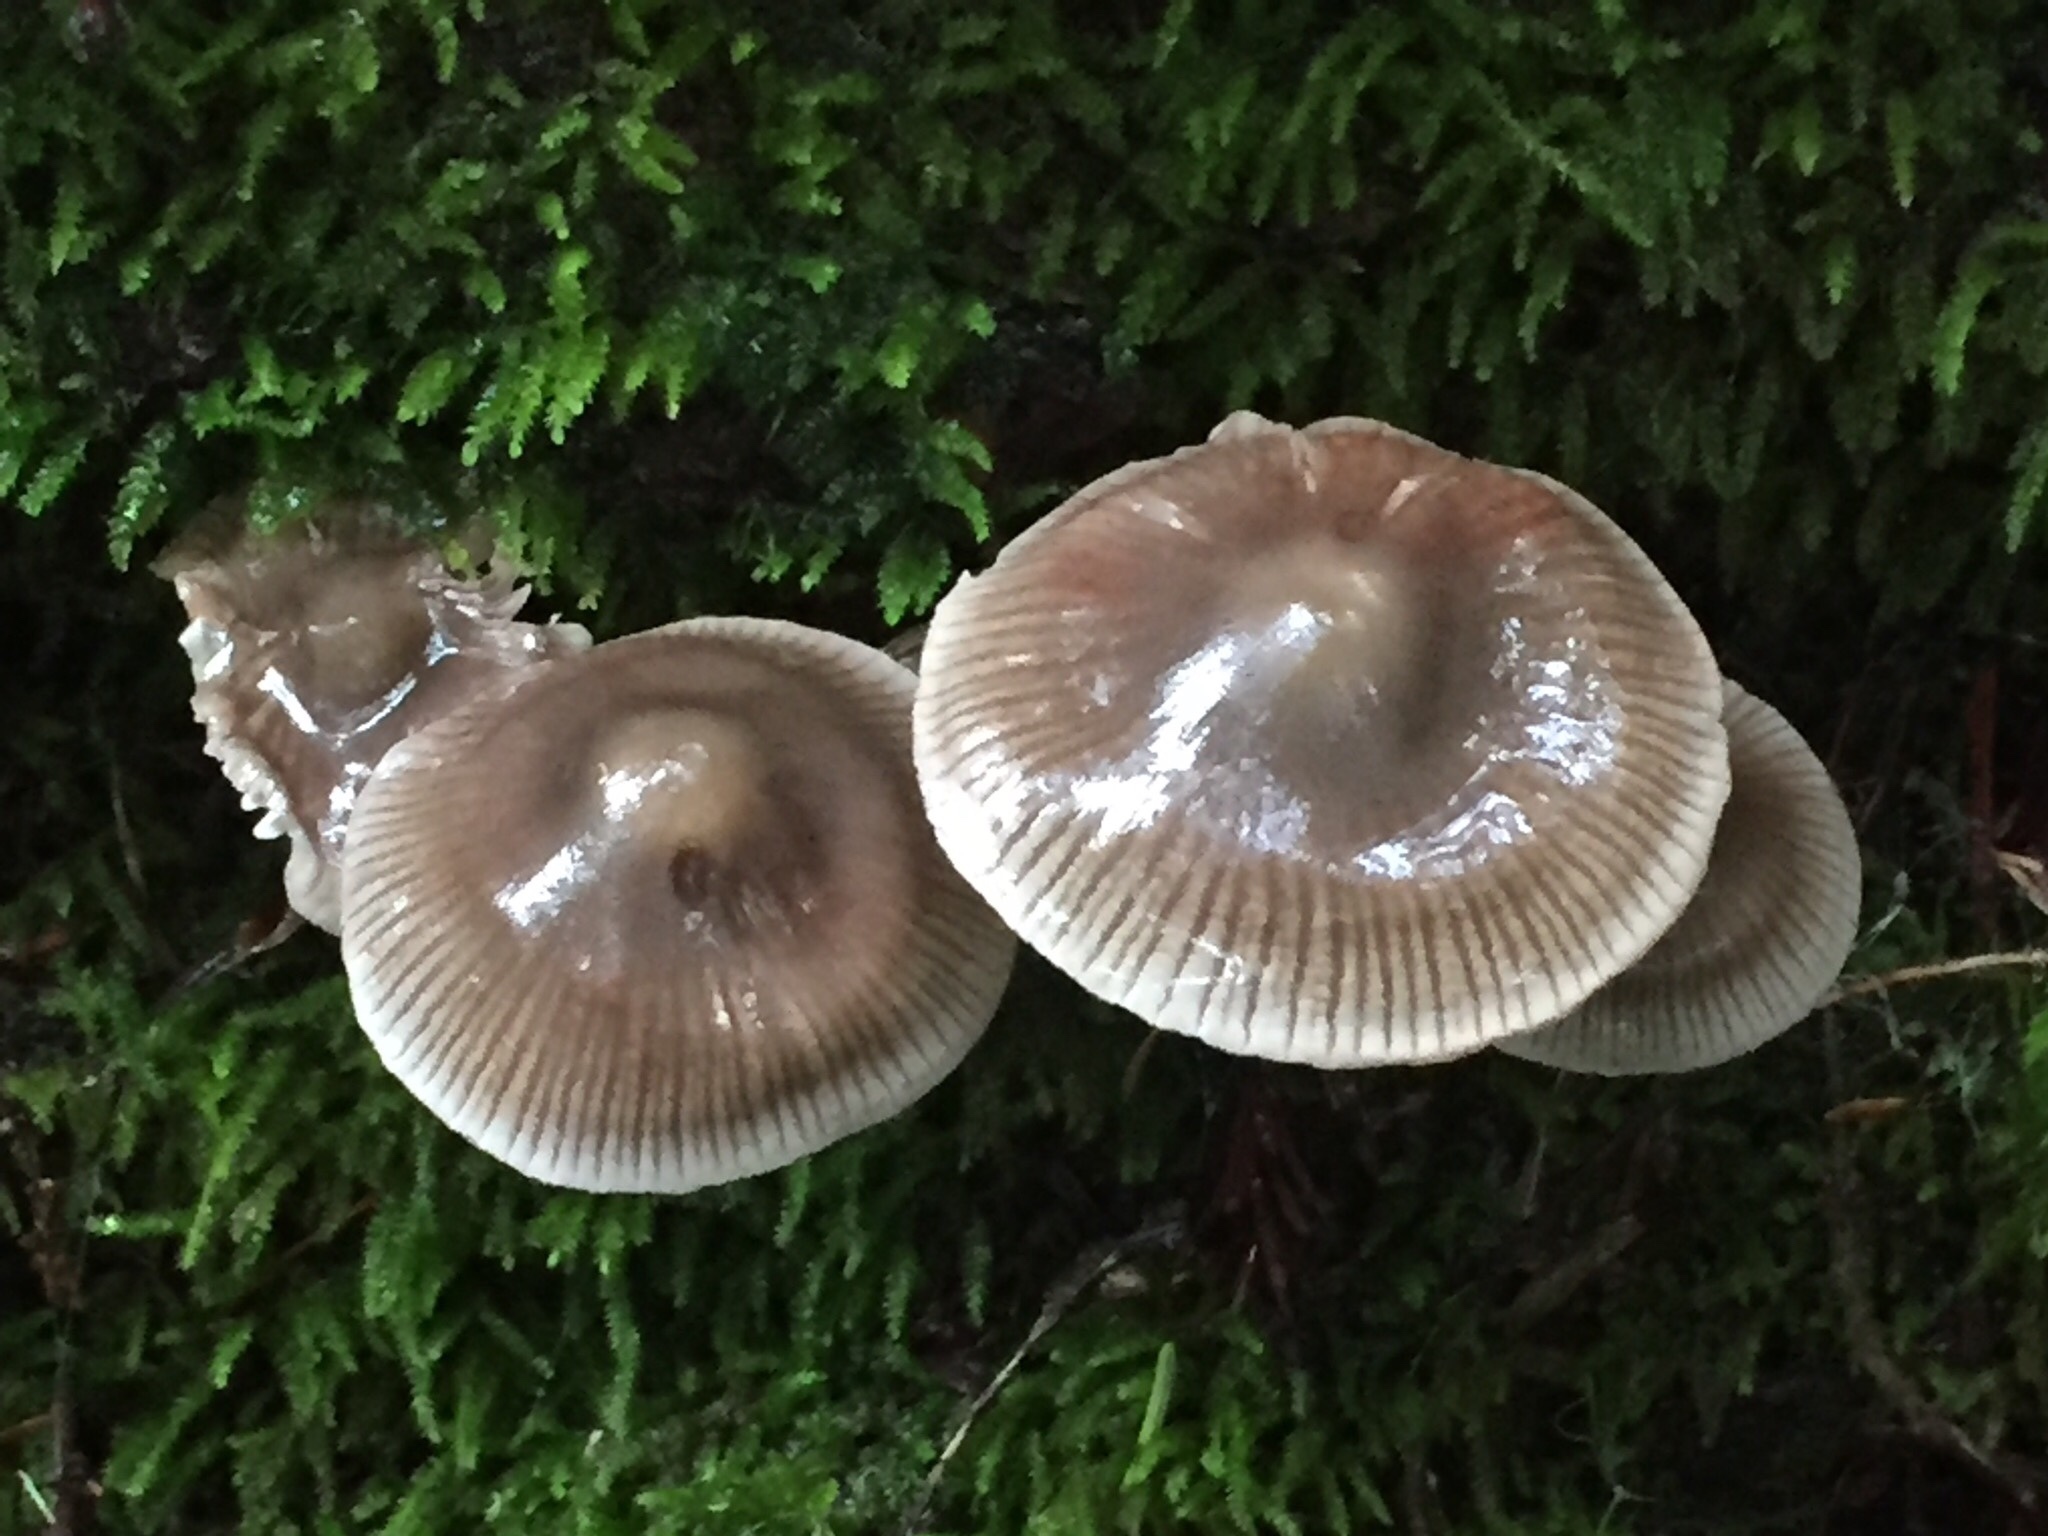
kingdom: Fungi
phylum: Basidiomycota
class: Agaricomycetes
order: Agaricales
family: Mycenaceae
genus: Mycena
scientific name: Mycena galericulata
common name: Bonnet mycena
